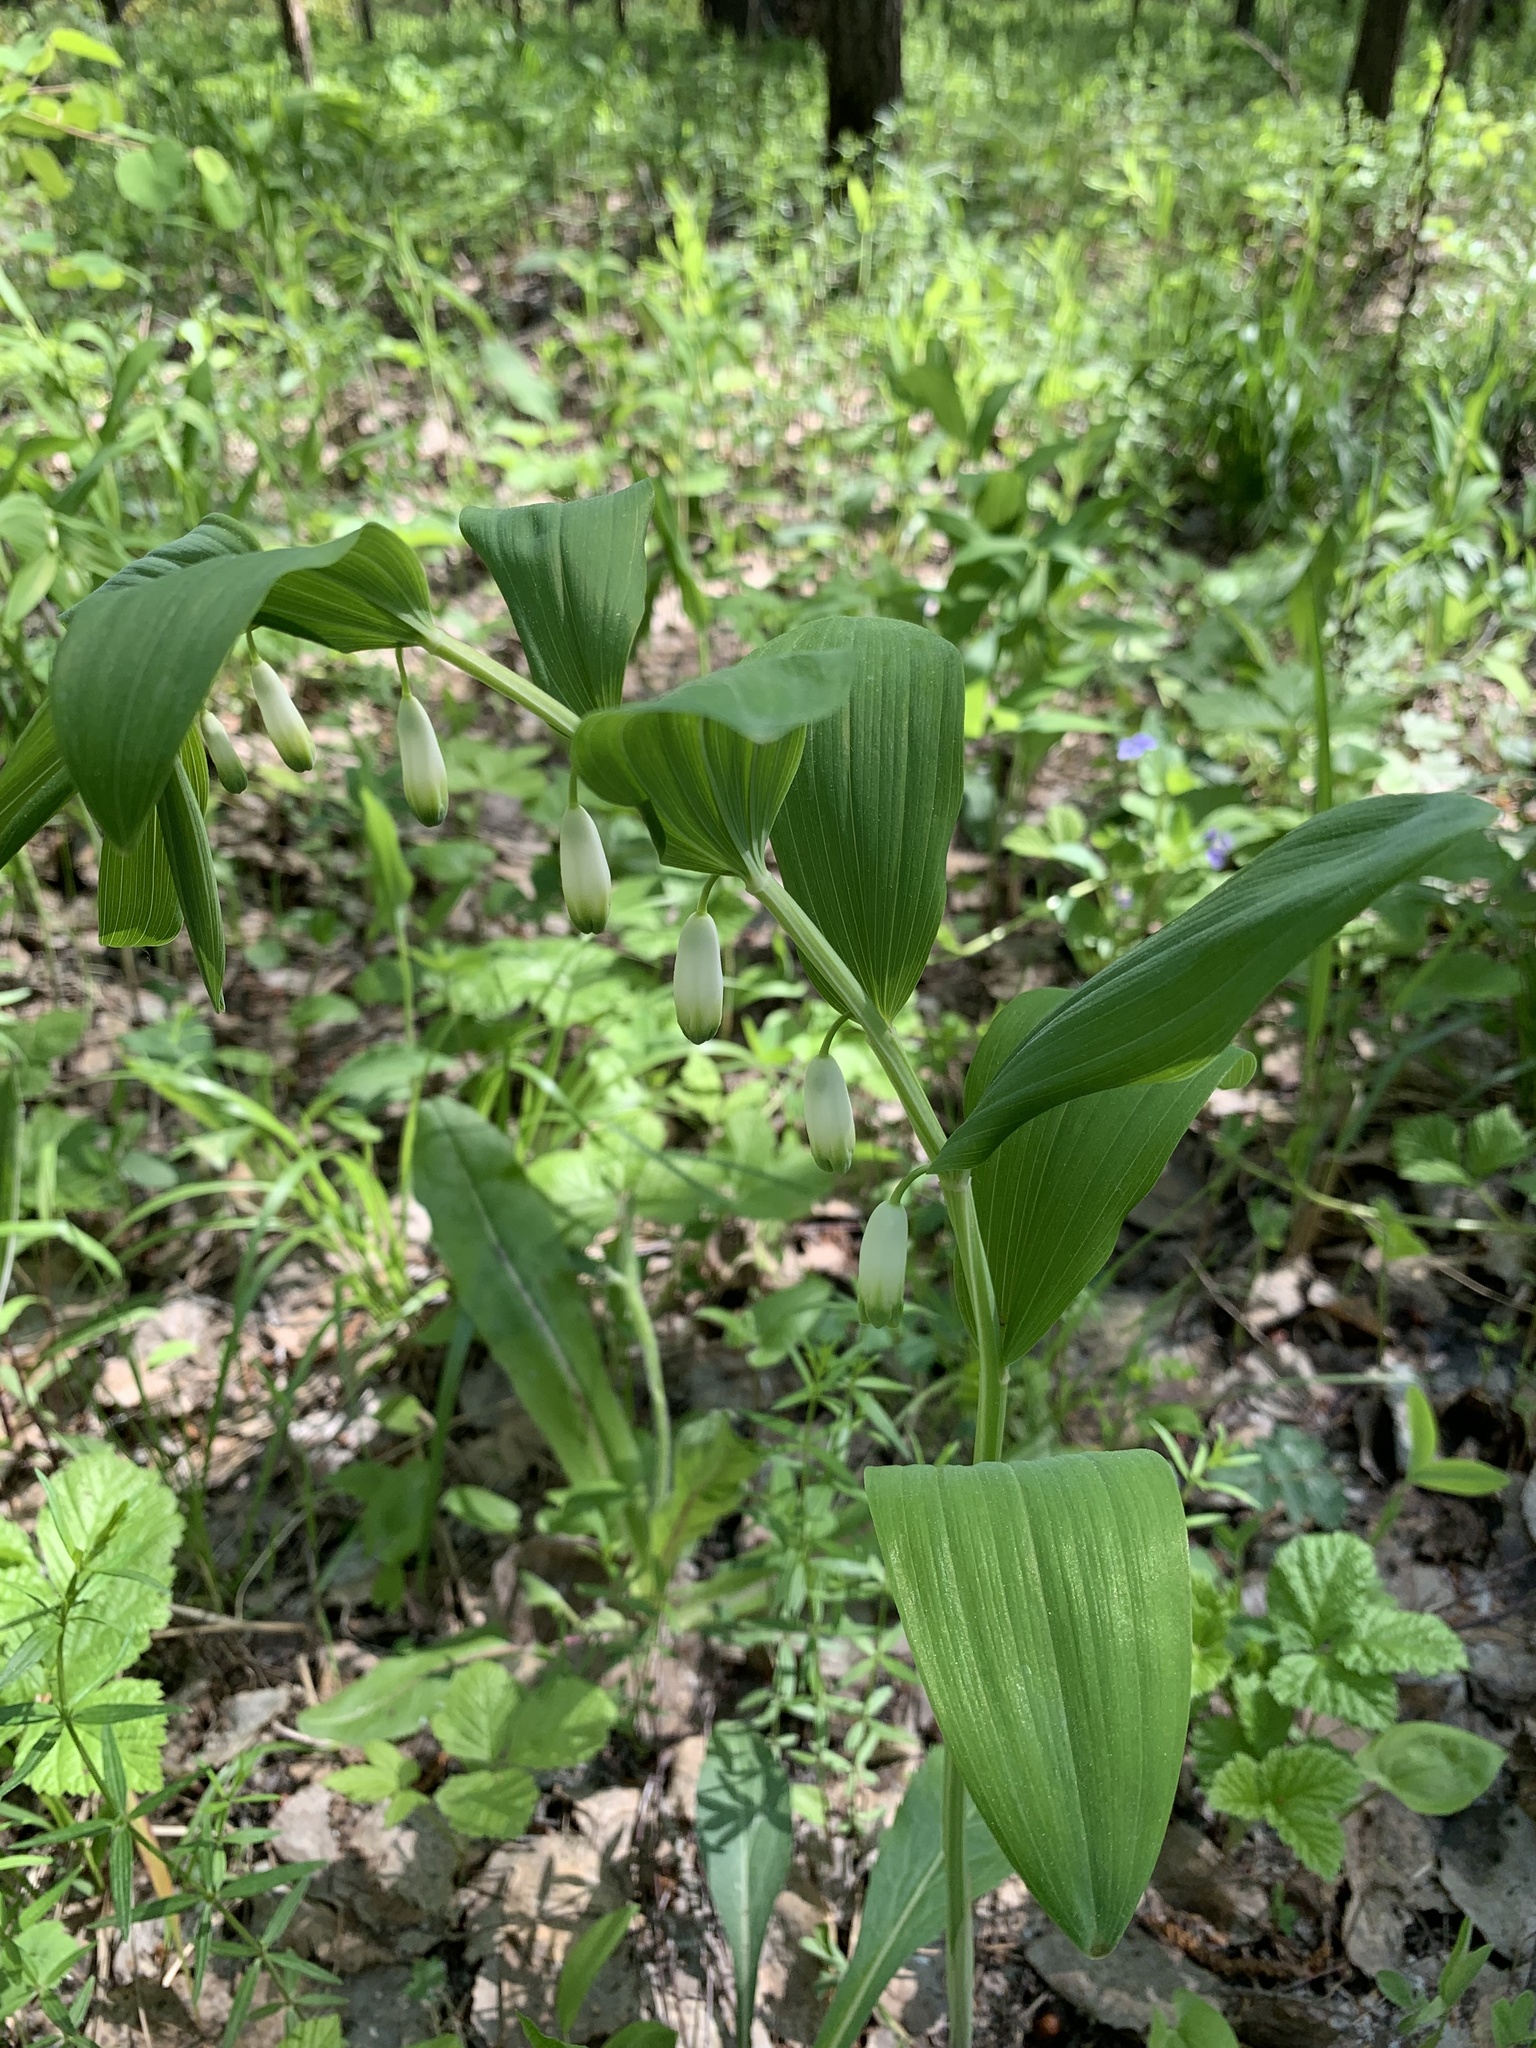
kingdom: Plantae
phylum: Tracheophyta
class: Liliopsida
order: Asparagales
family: Asparagaceae
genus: Polygonatum
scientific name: Polygonatum odoratum
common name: Angular solomon's-seal
